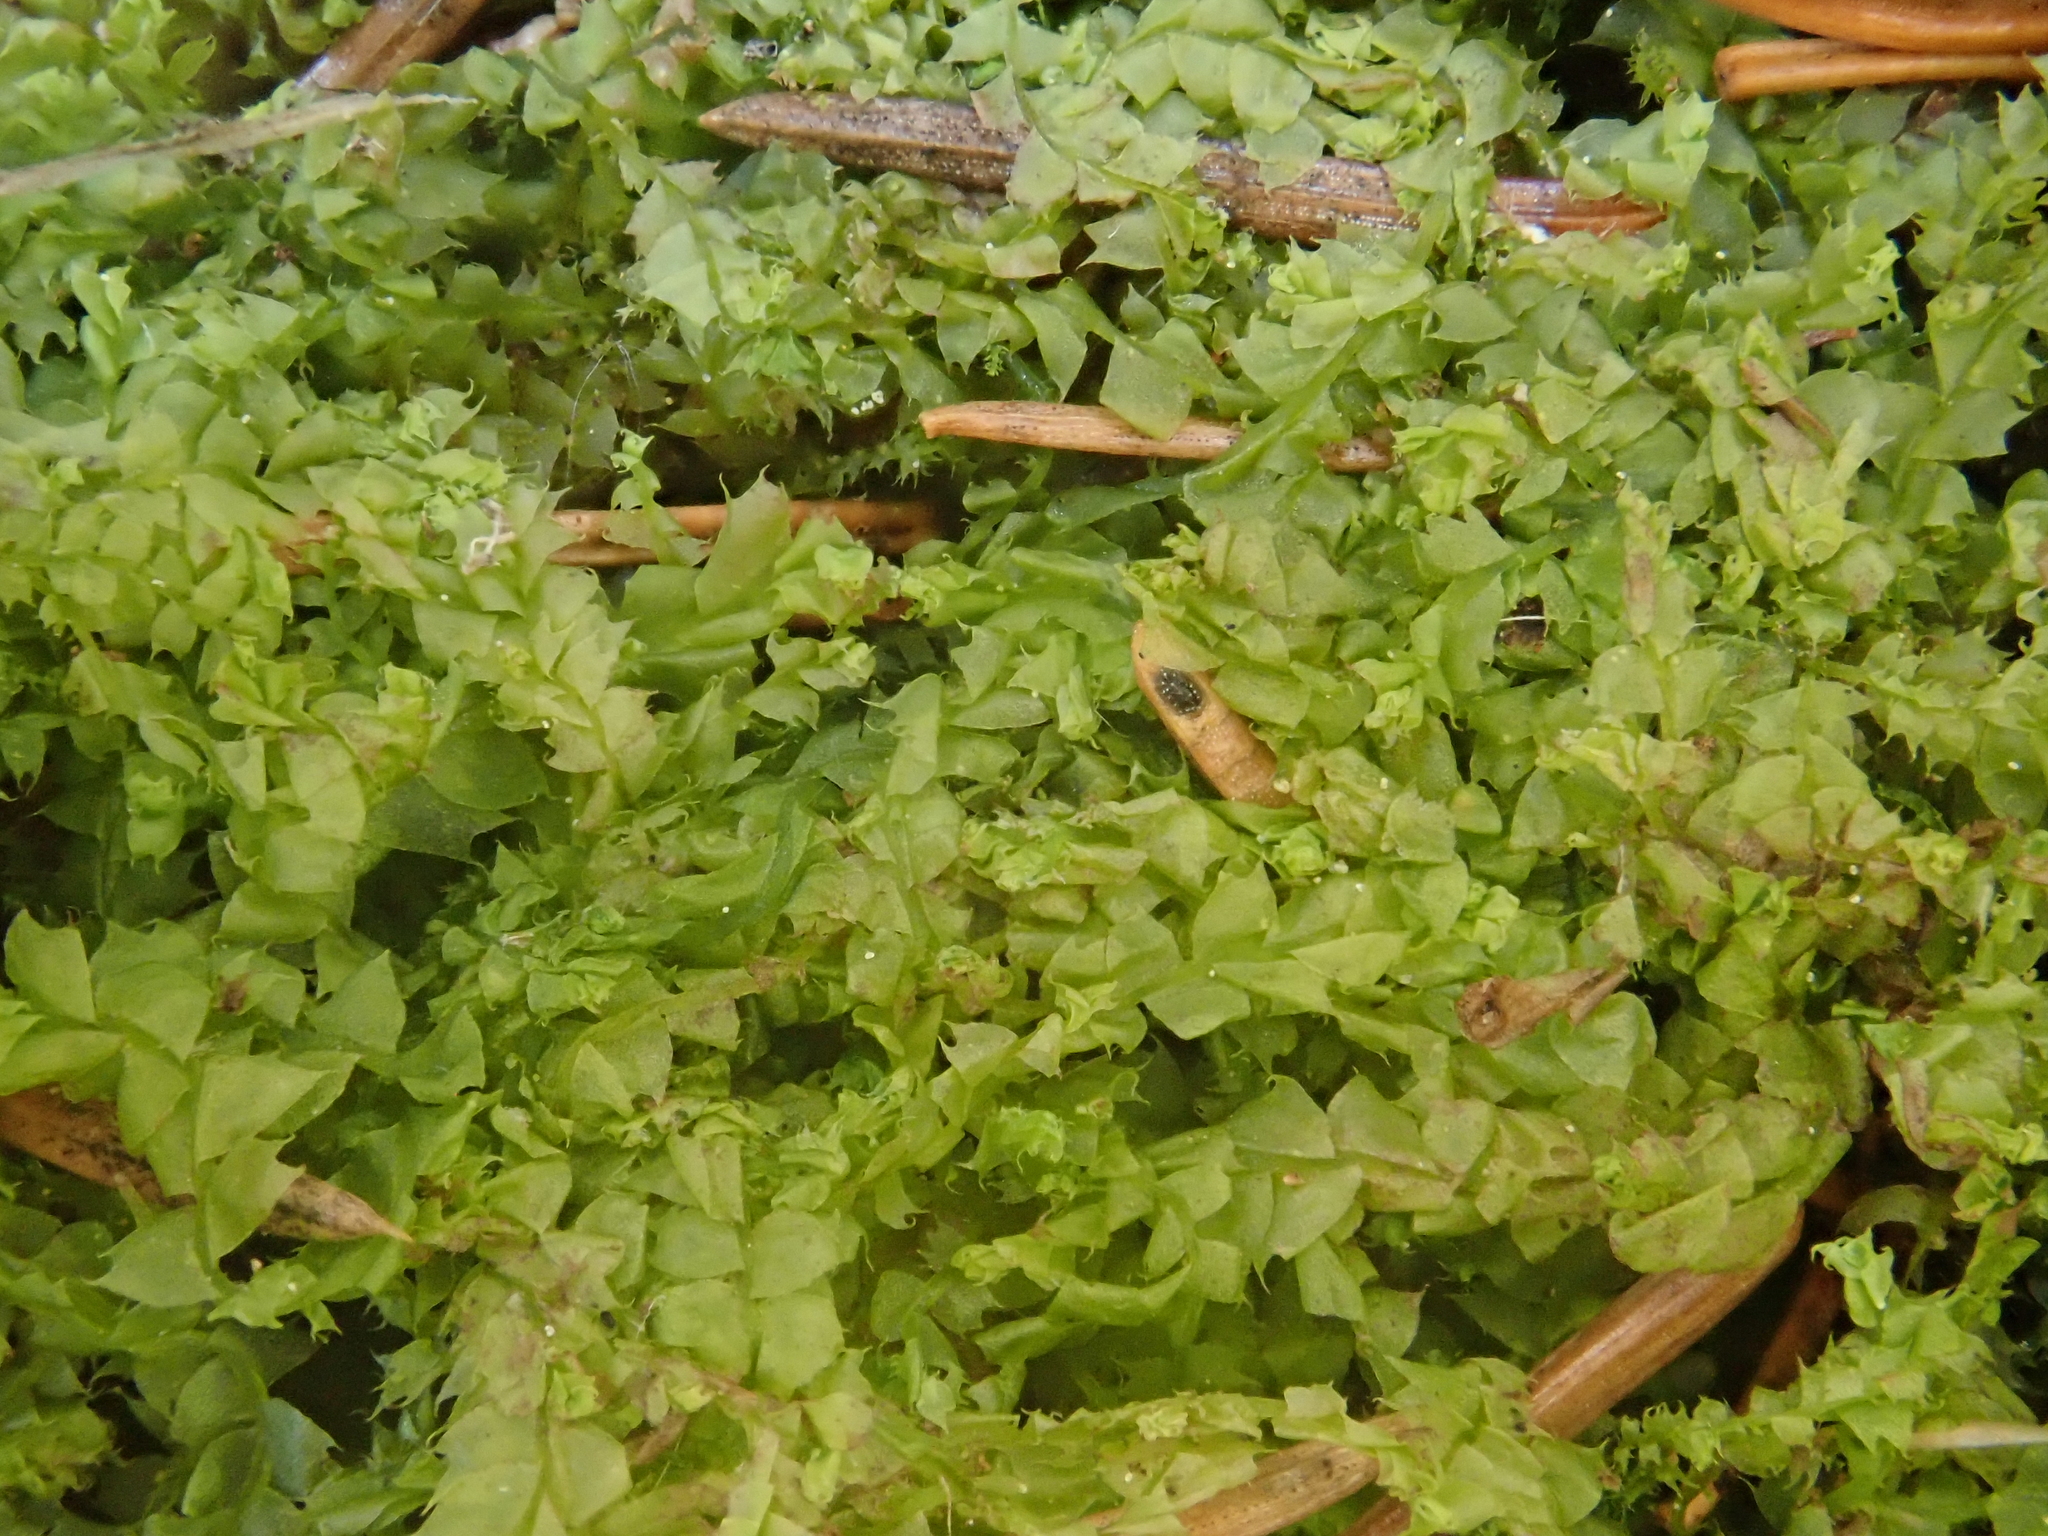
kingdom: Plantae
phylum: Marchantiophyta
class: Jungermanniopsida
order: Jungermanniales
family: Lophocoleaceae
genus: Lophocolea
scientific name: Lophocolea bidentata
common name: Bifid crestwort
